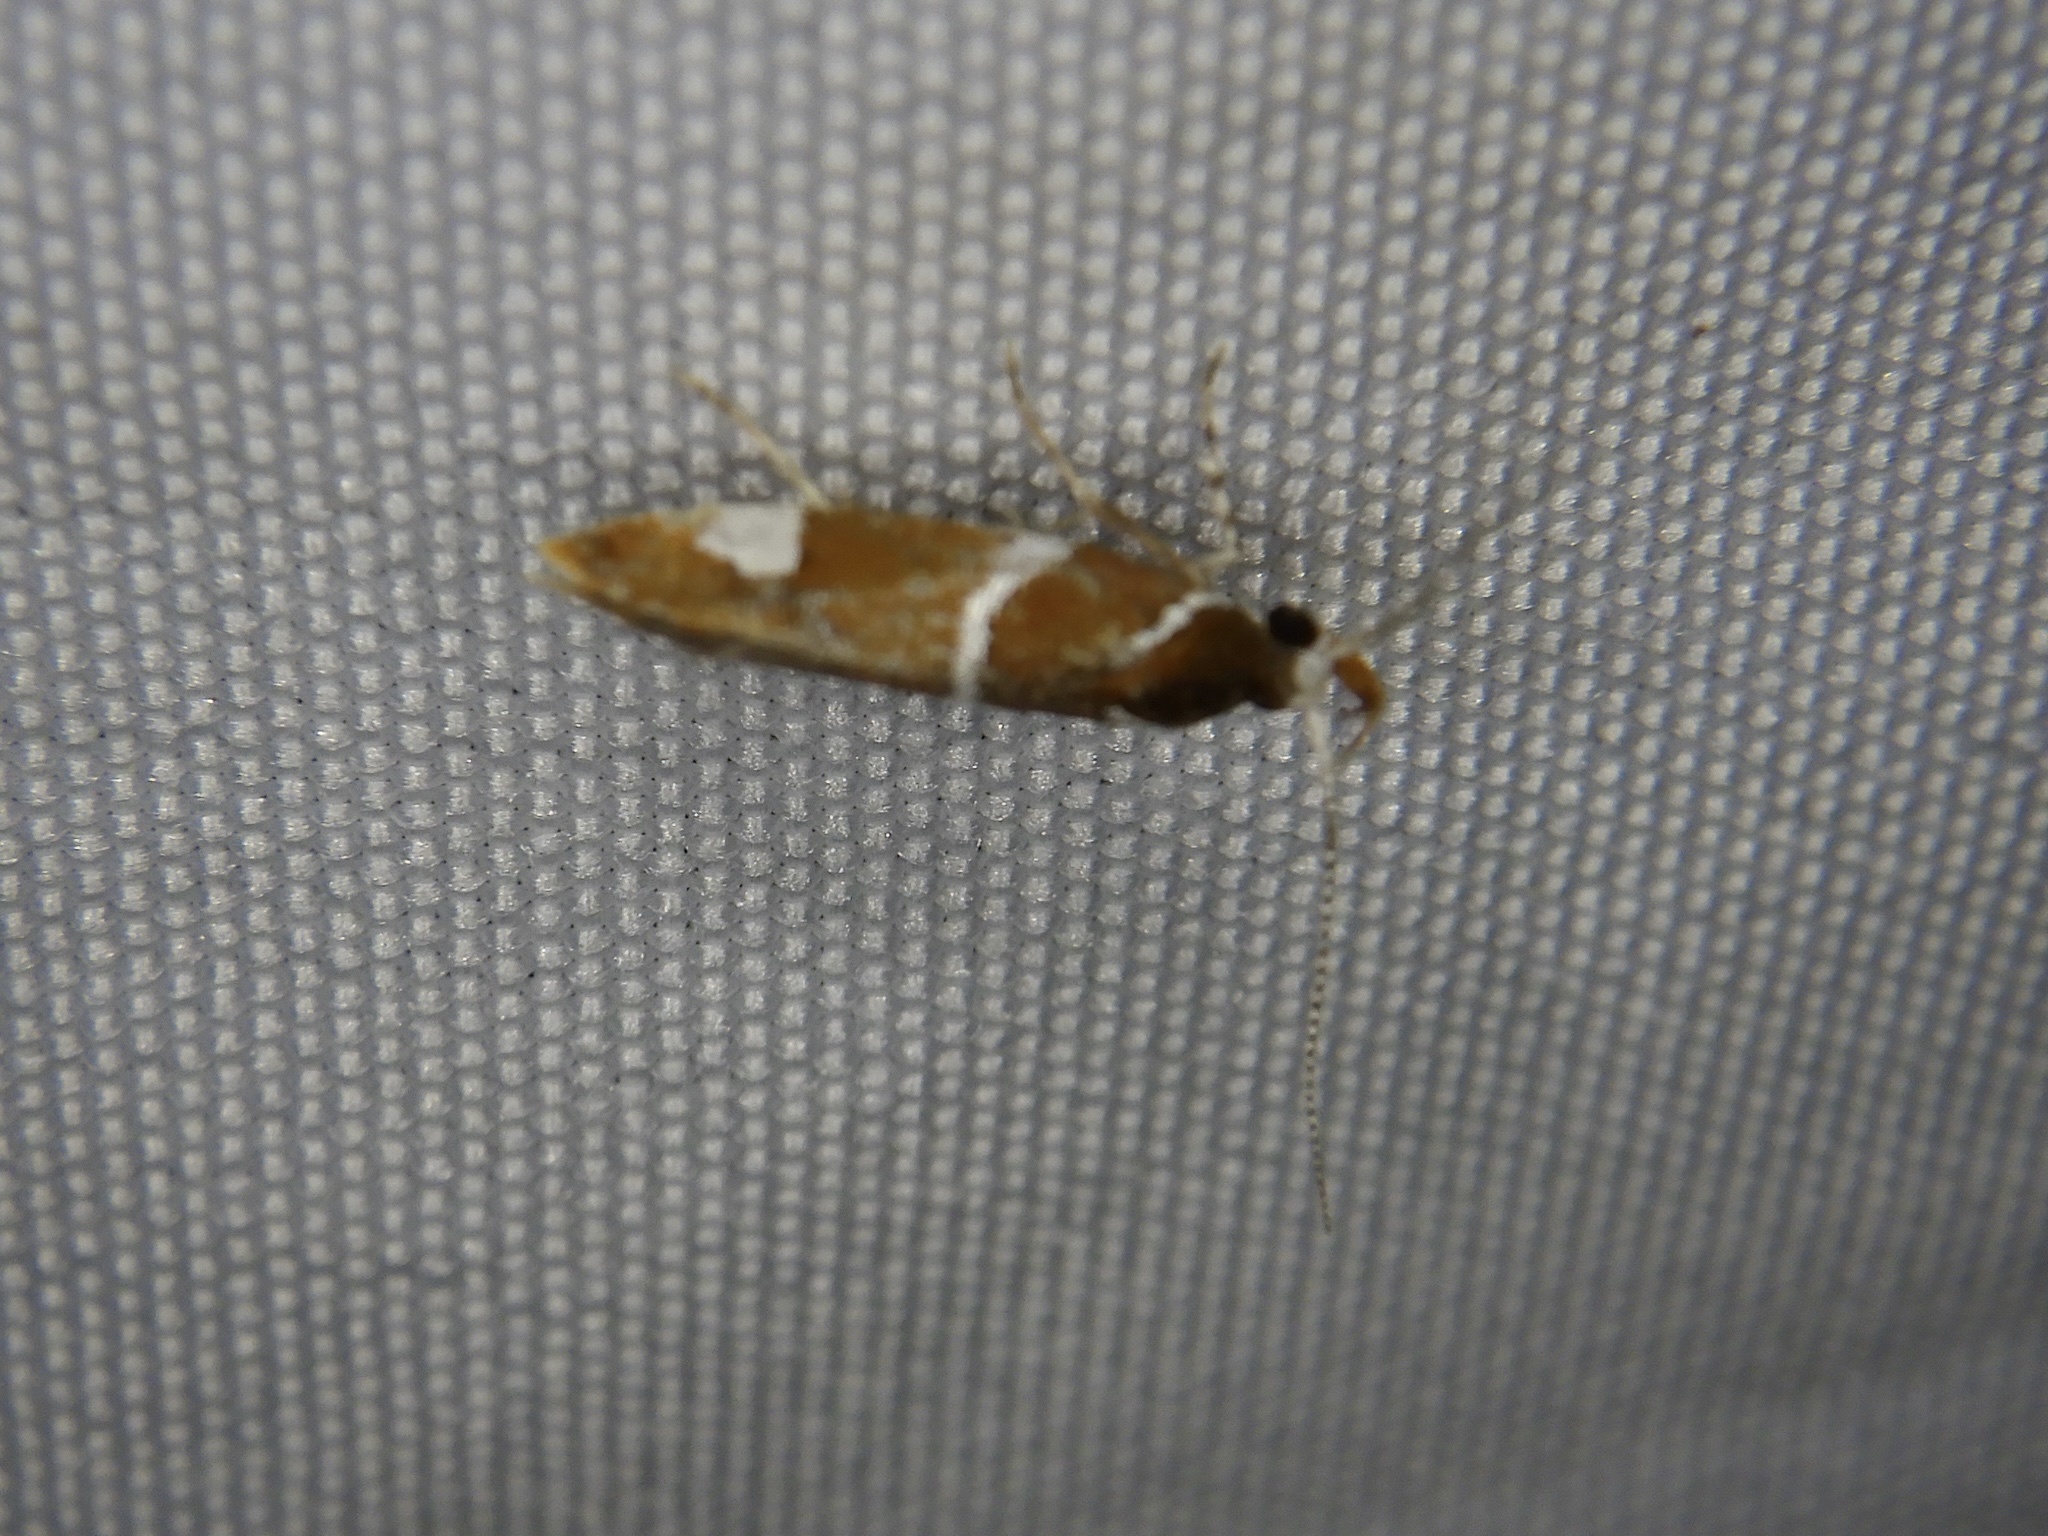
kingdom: Animalia
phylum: Arthropoda
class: Insecta
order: Lepidoptera
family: Oecophoridae
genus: Promalactis
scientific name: Promalactis suzukiella
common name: Moth
